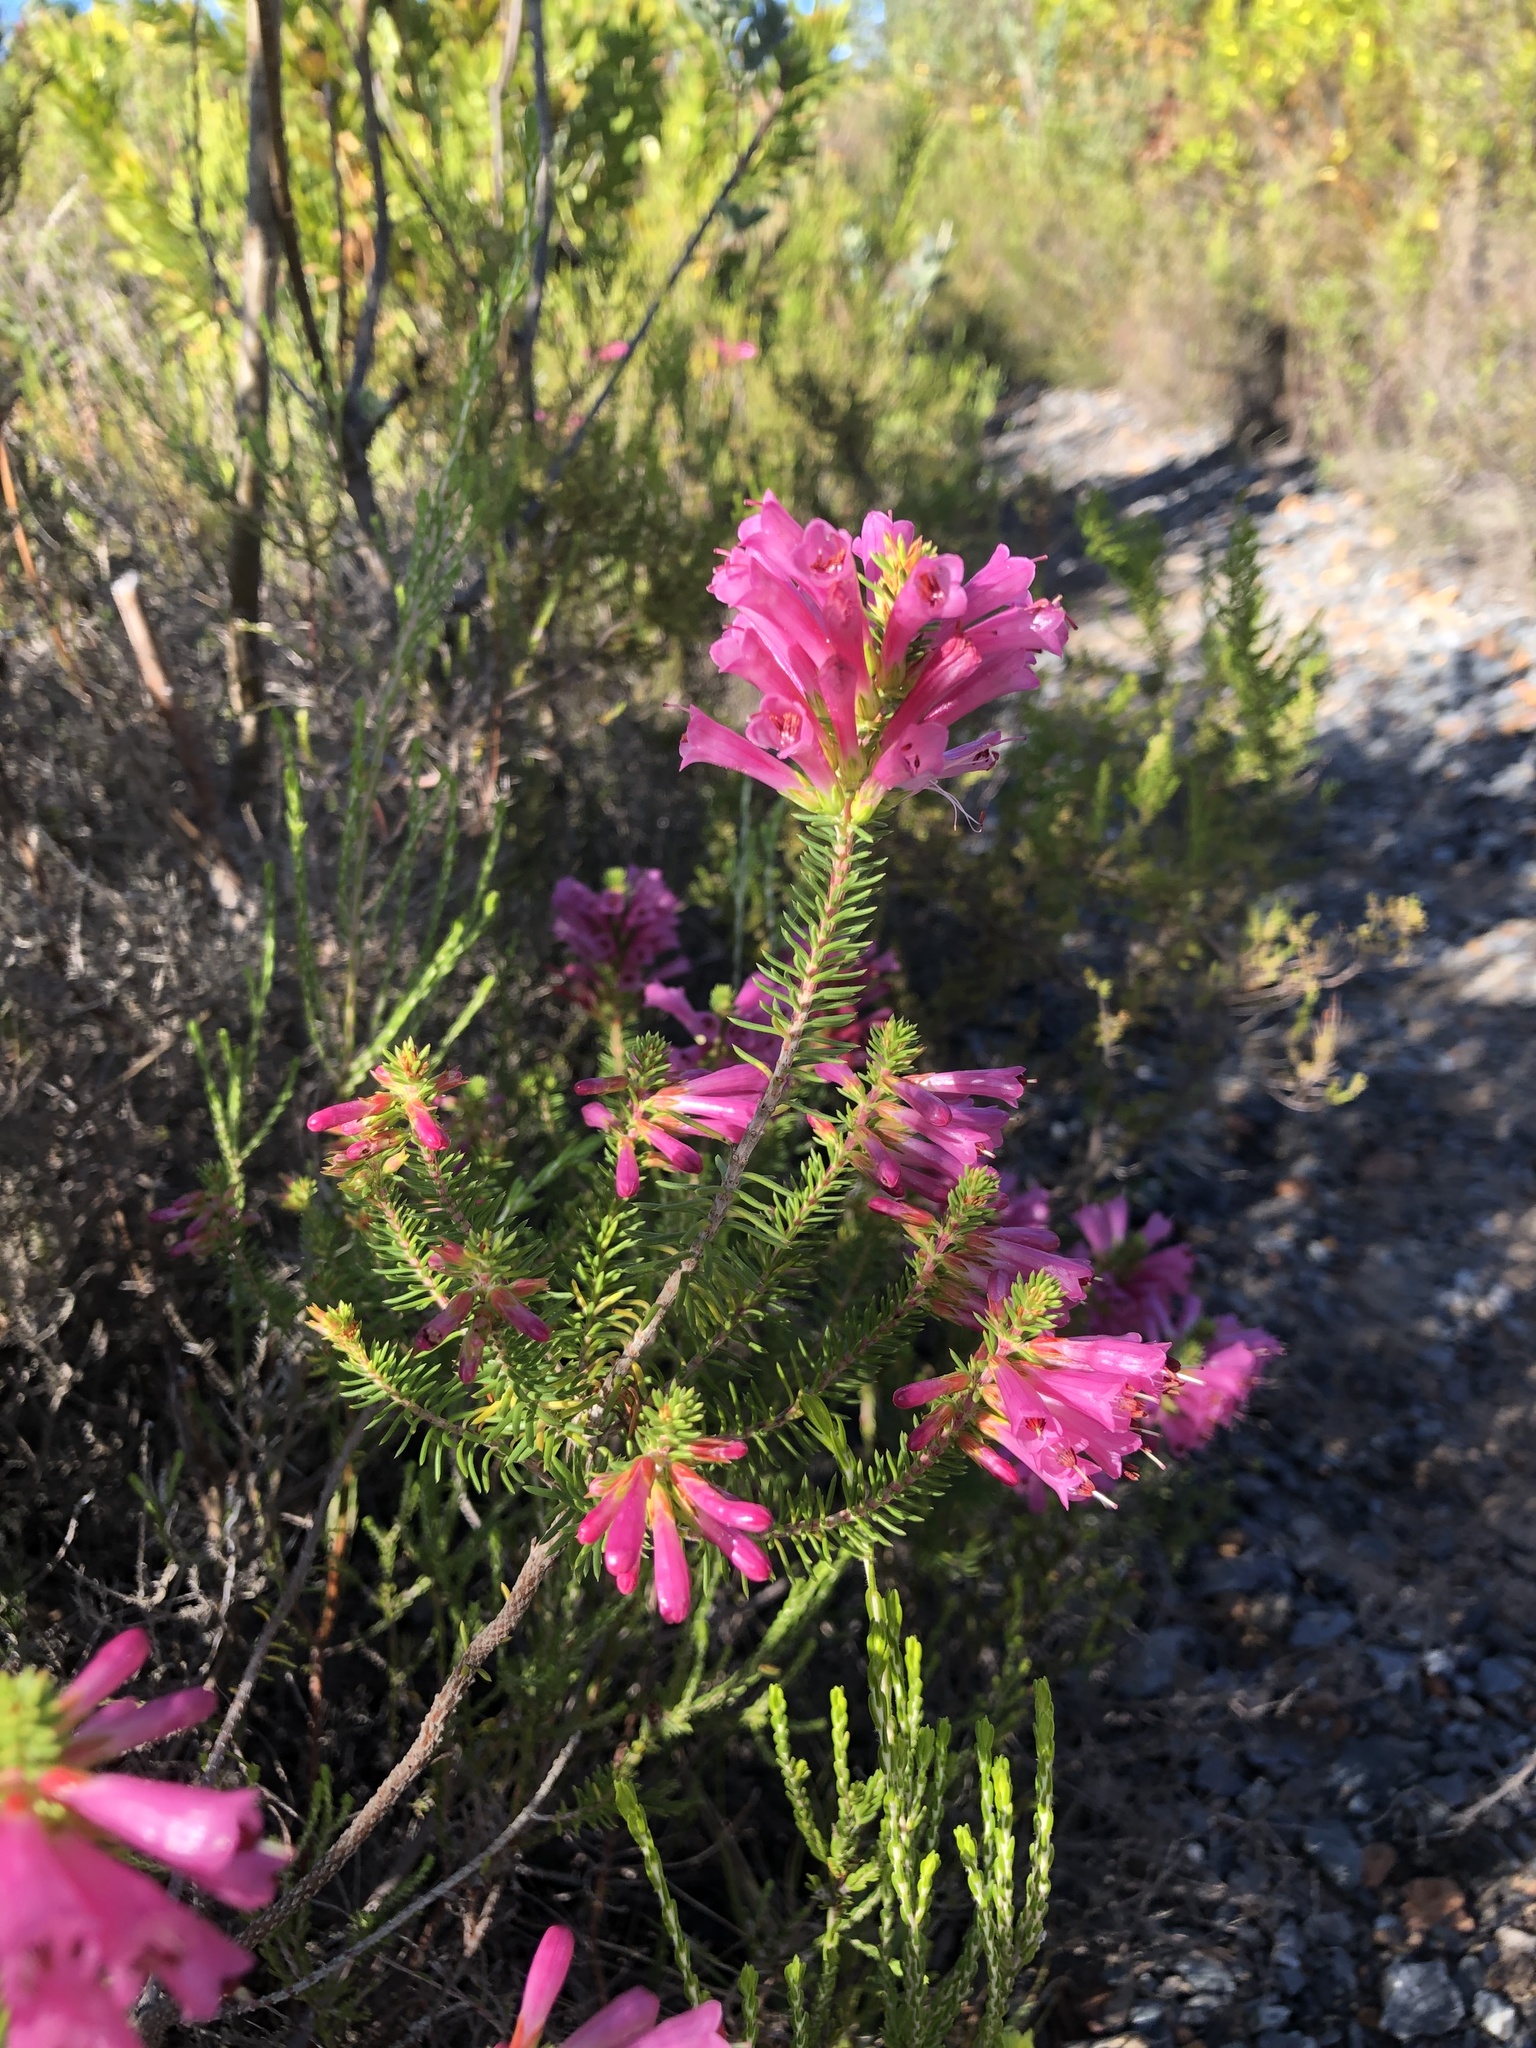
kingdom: Plantae
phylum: Tracheophyta
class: Magnoliopsida
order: Ericales
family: Ericaceae
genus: Erica
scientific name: Erica abietina
